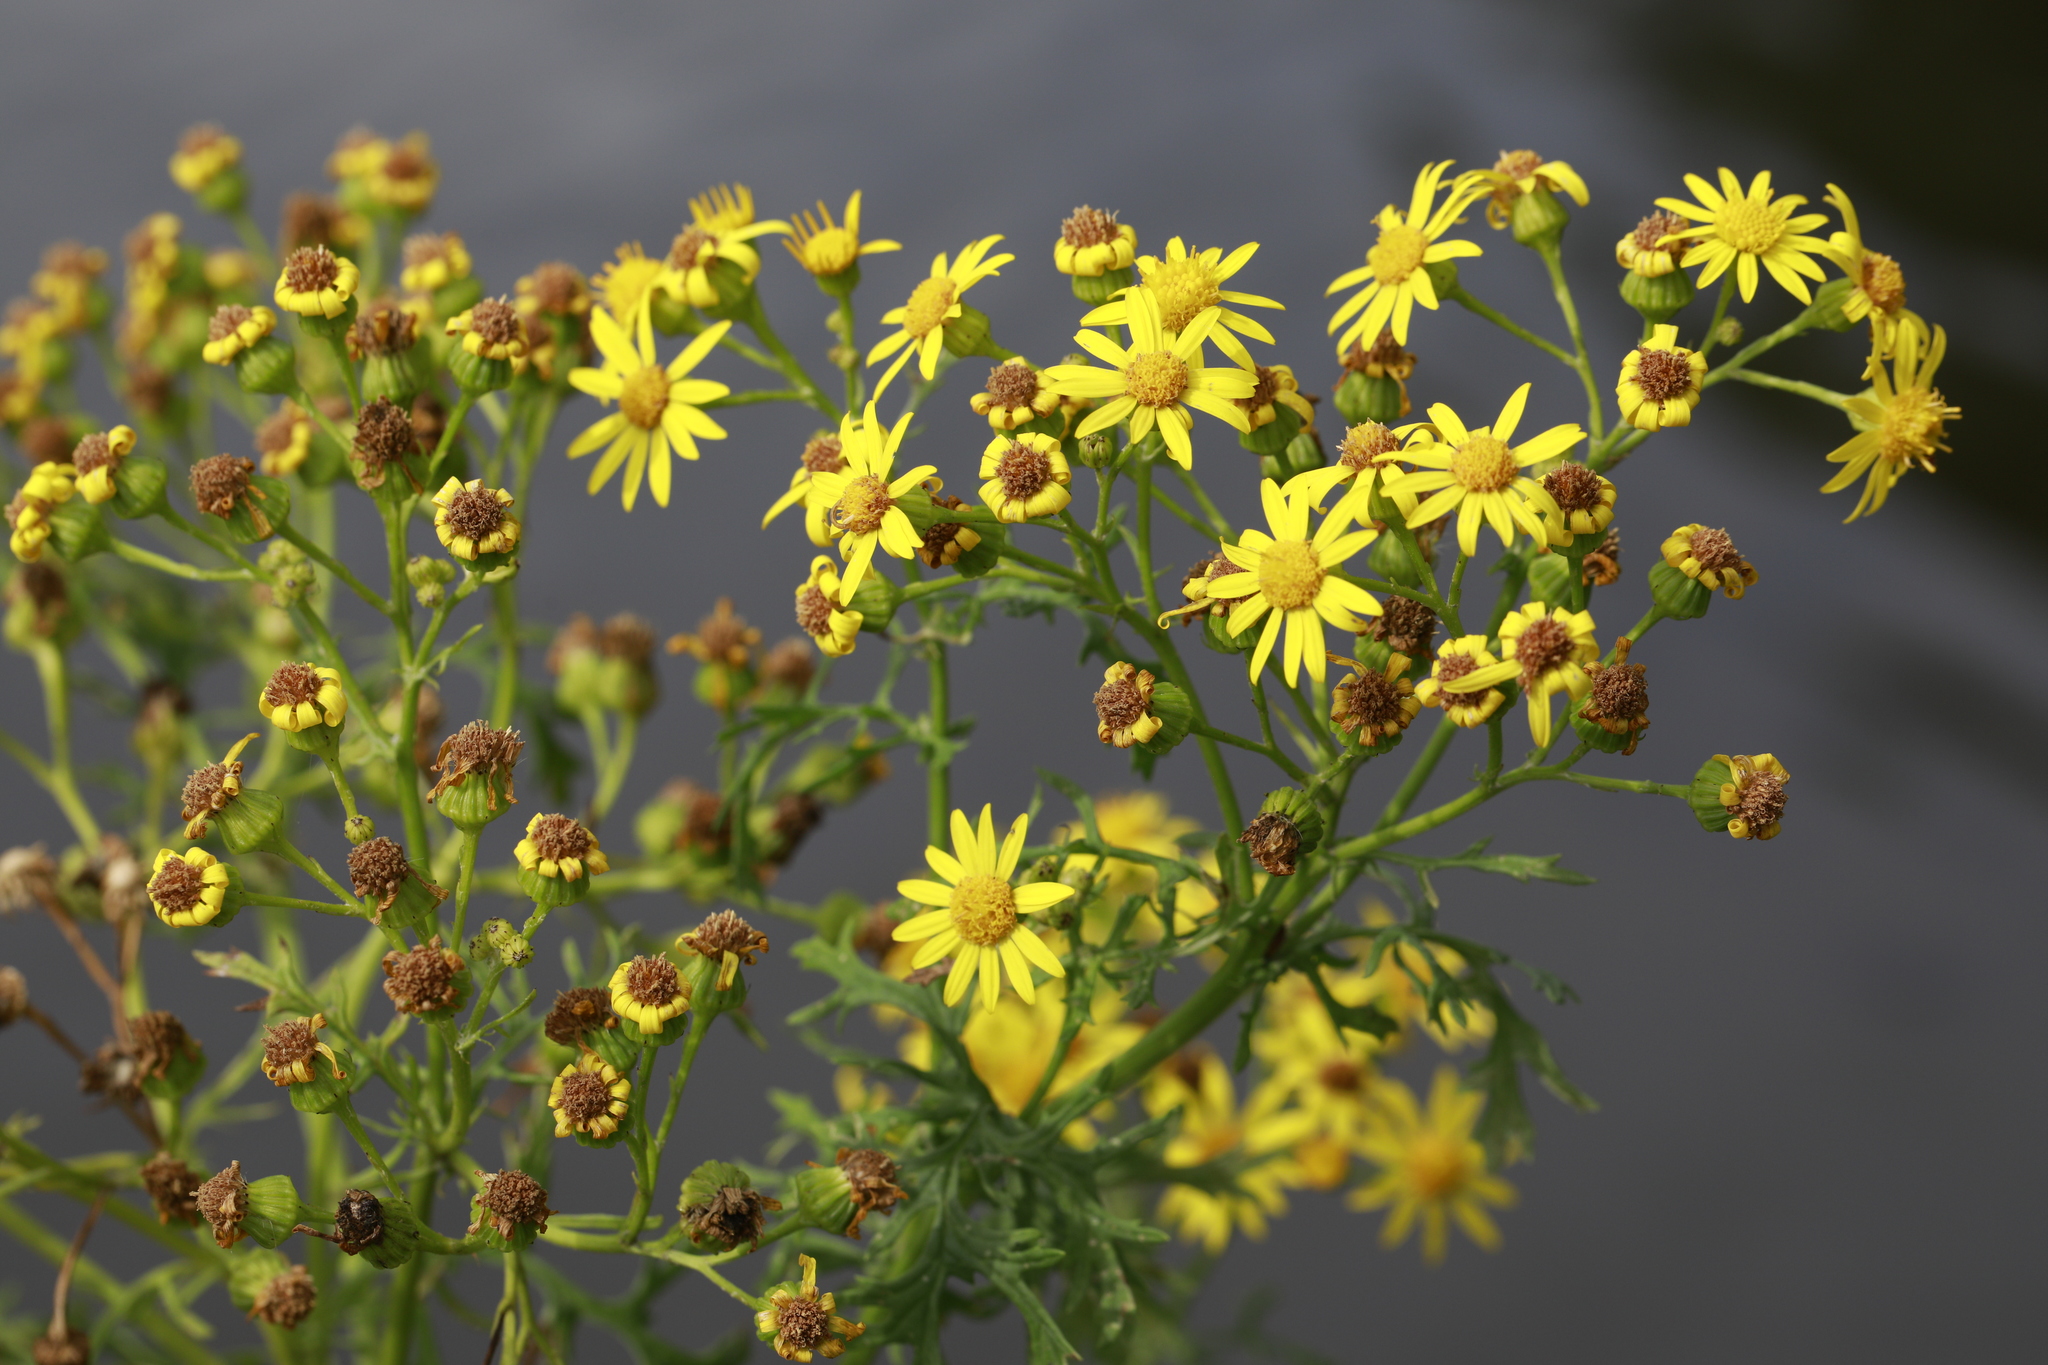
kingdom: Plantae
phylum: Tracheophyta
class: Magnoliopsida
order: Asterales
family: Asteraceae
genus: Jacobaea
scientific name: Jacobaea vulgaris
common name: Stinking willie
